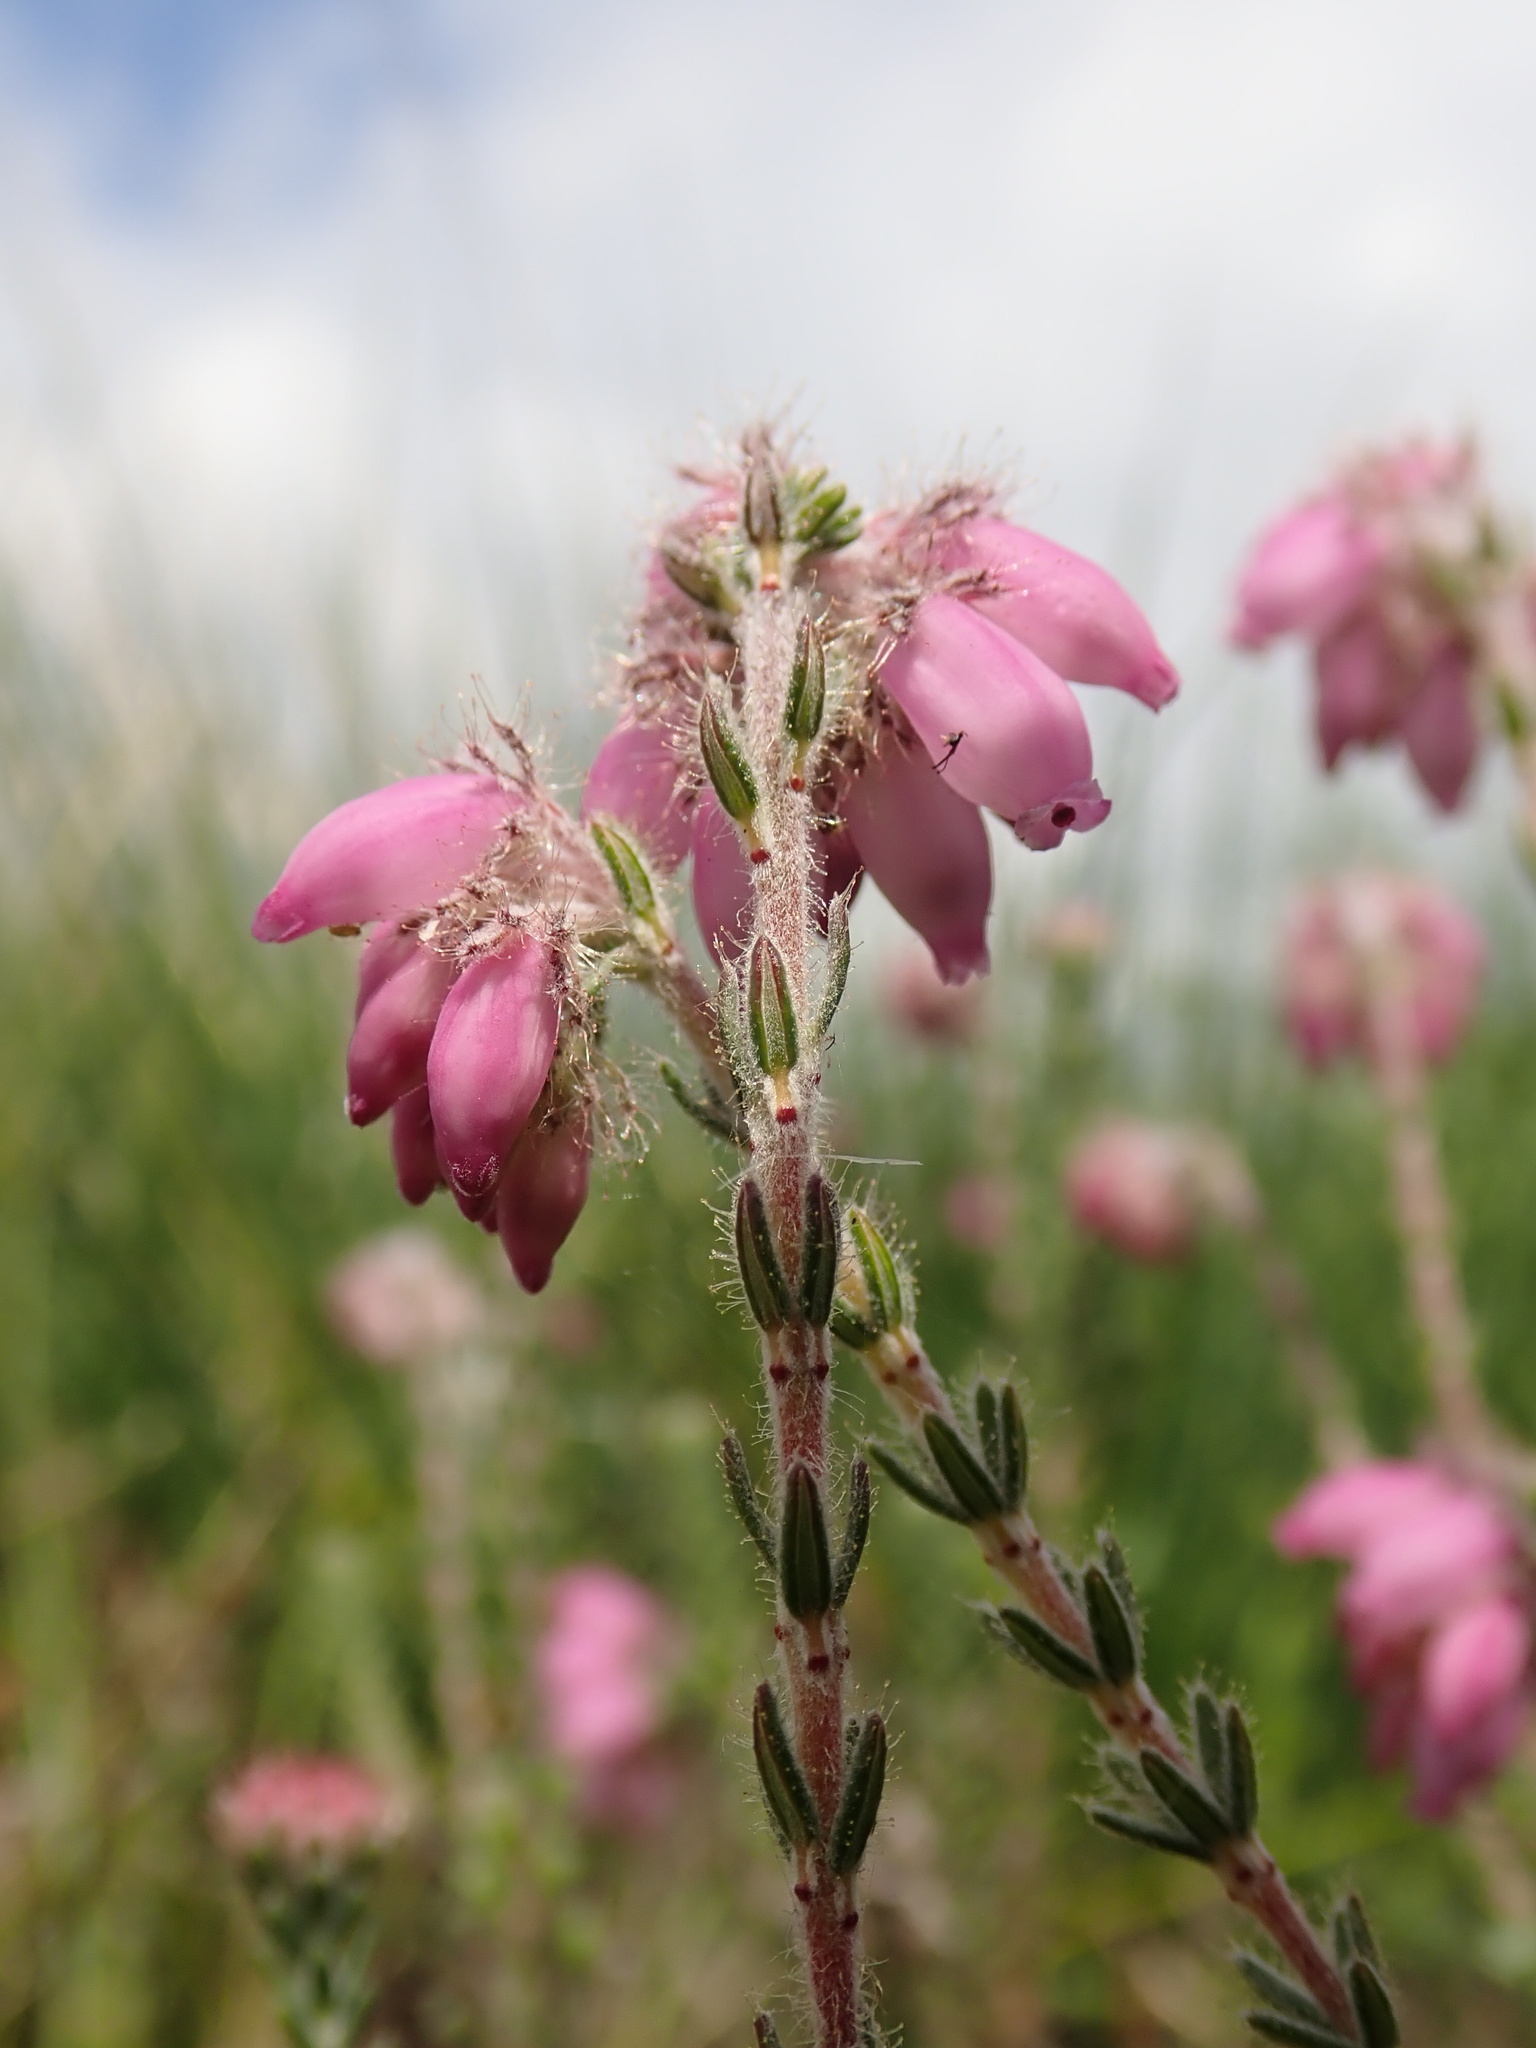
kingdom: Plantae
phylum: Tracheophyta
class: Magnoliopsida
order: Ericales
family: Ericaceae
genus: Erica
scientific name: Erica tetralix
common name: Cross-leaved heath
